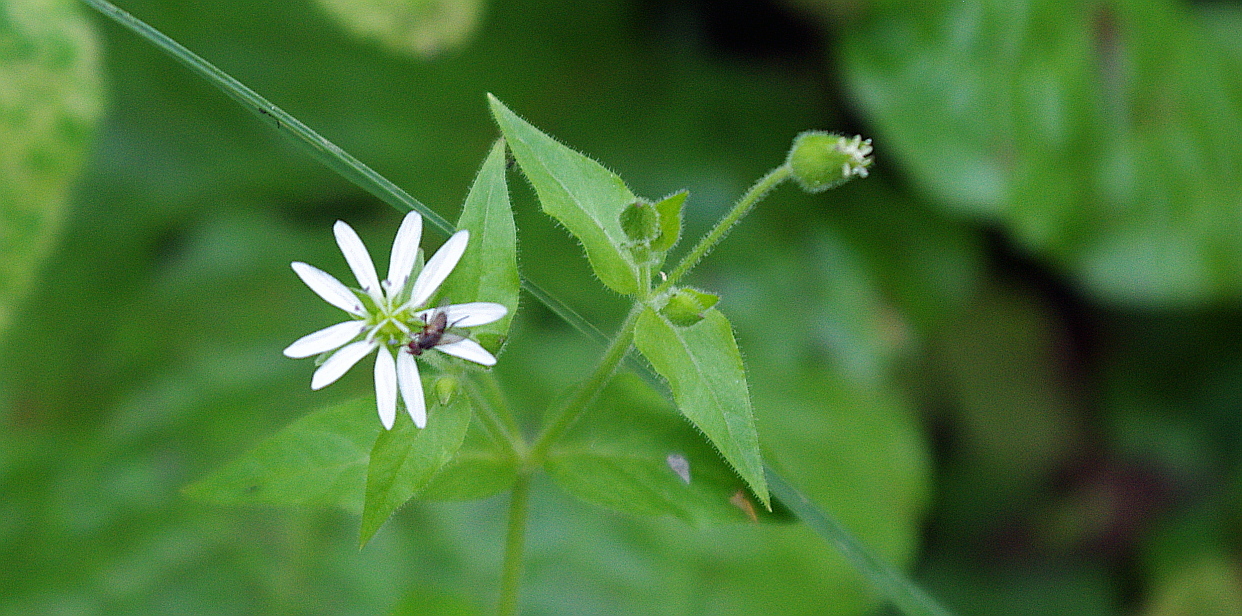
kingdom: Plantae
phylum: Tracheophyta
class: Magnoliopsida
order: Caryophyllales
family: Caryophyllaceae
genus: Stellaria
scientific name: Stellaria aquatica
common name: Water chickweed
